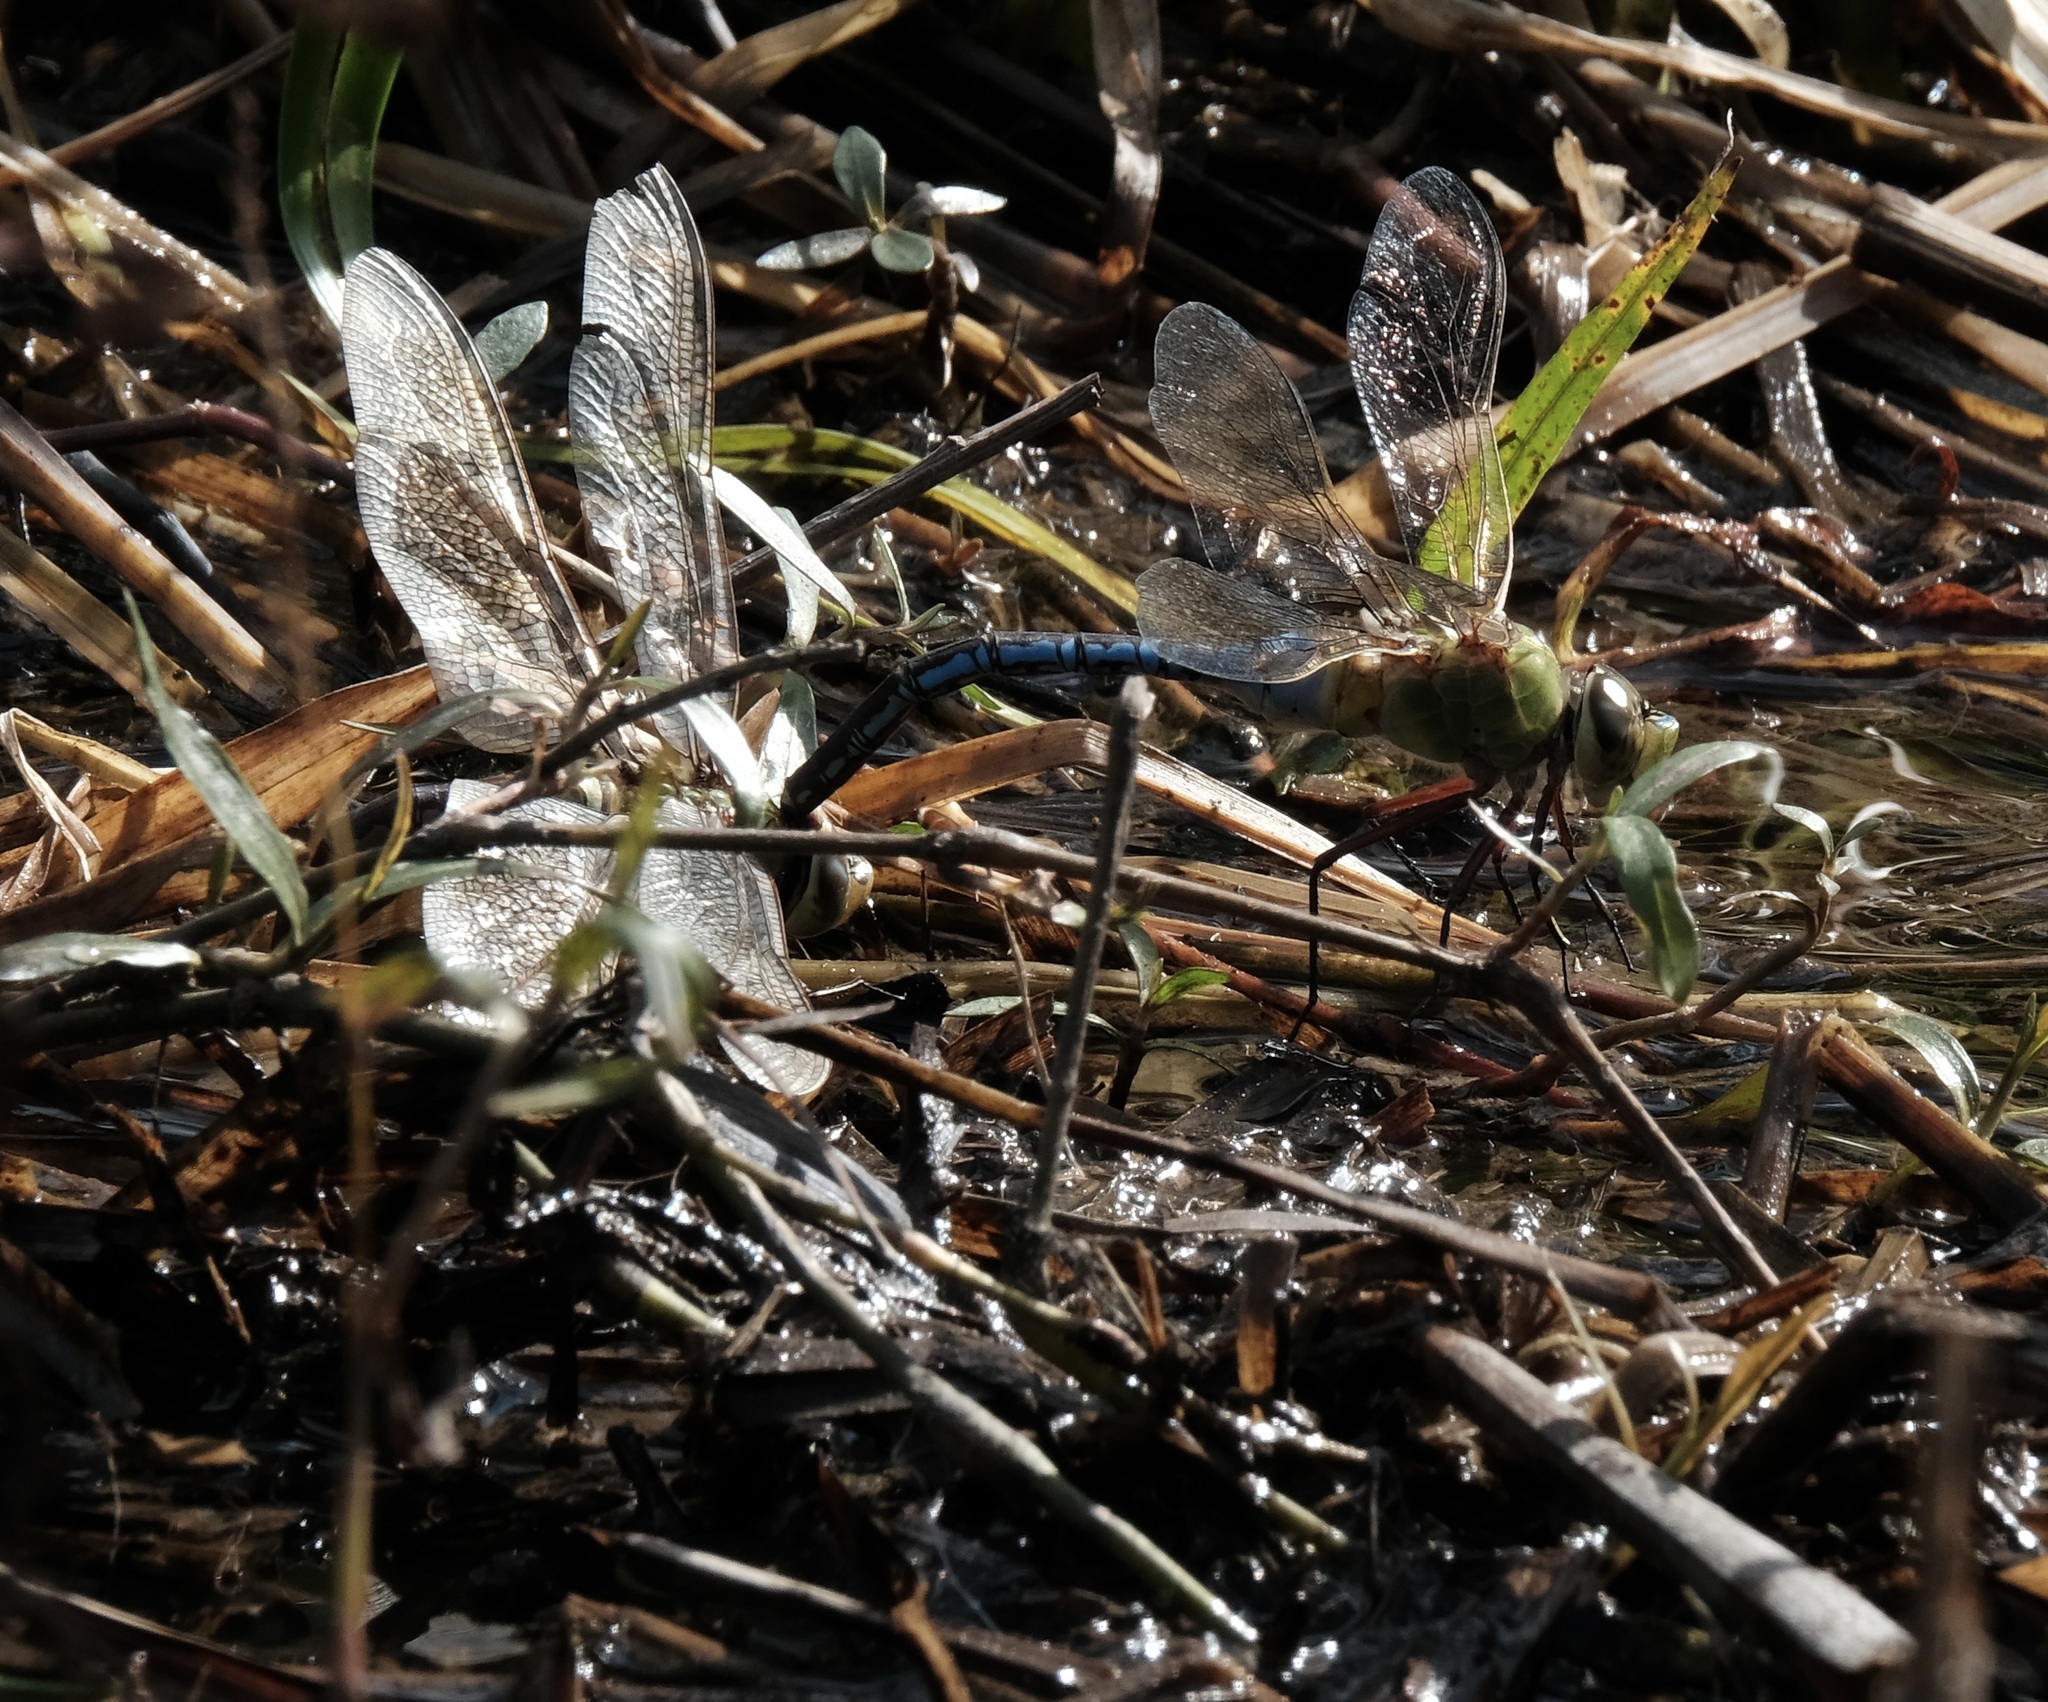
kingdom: Animalia
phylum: Arthropoda
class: Insecta
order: Odonata
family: Aeshnidae
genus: Anax
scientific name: Anax junius
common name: Common green darner
